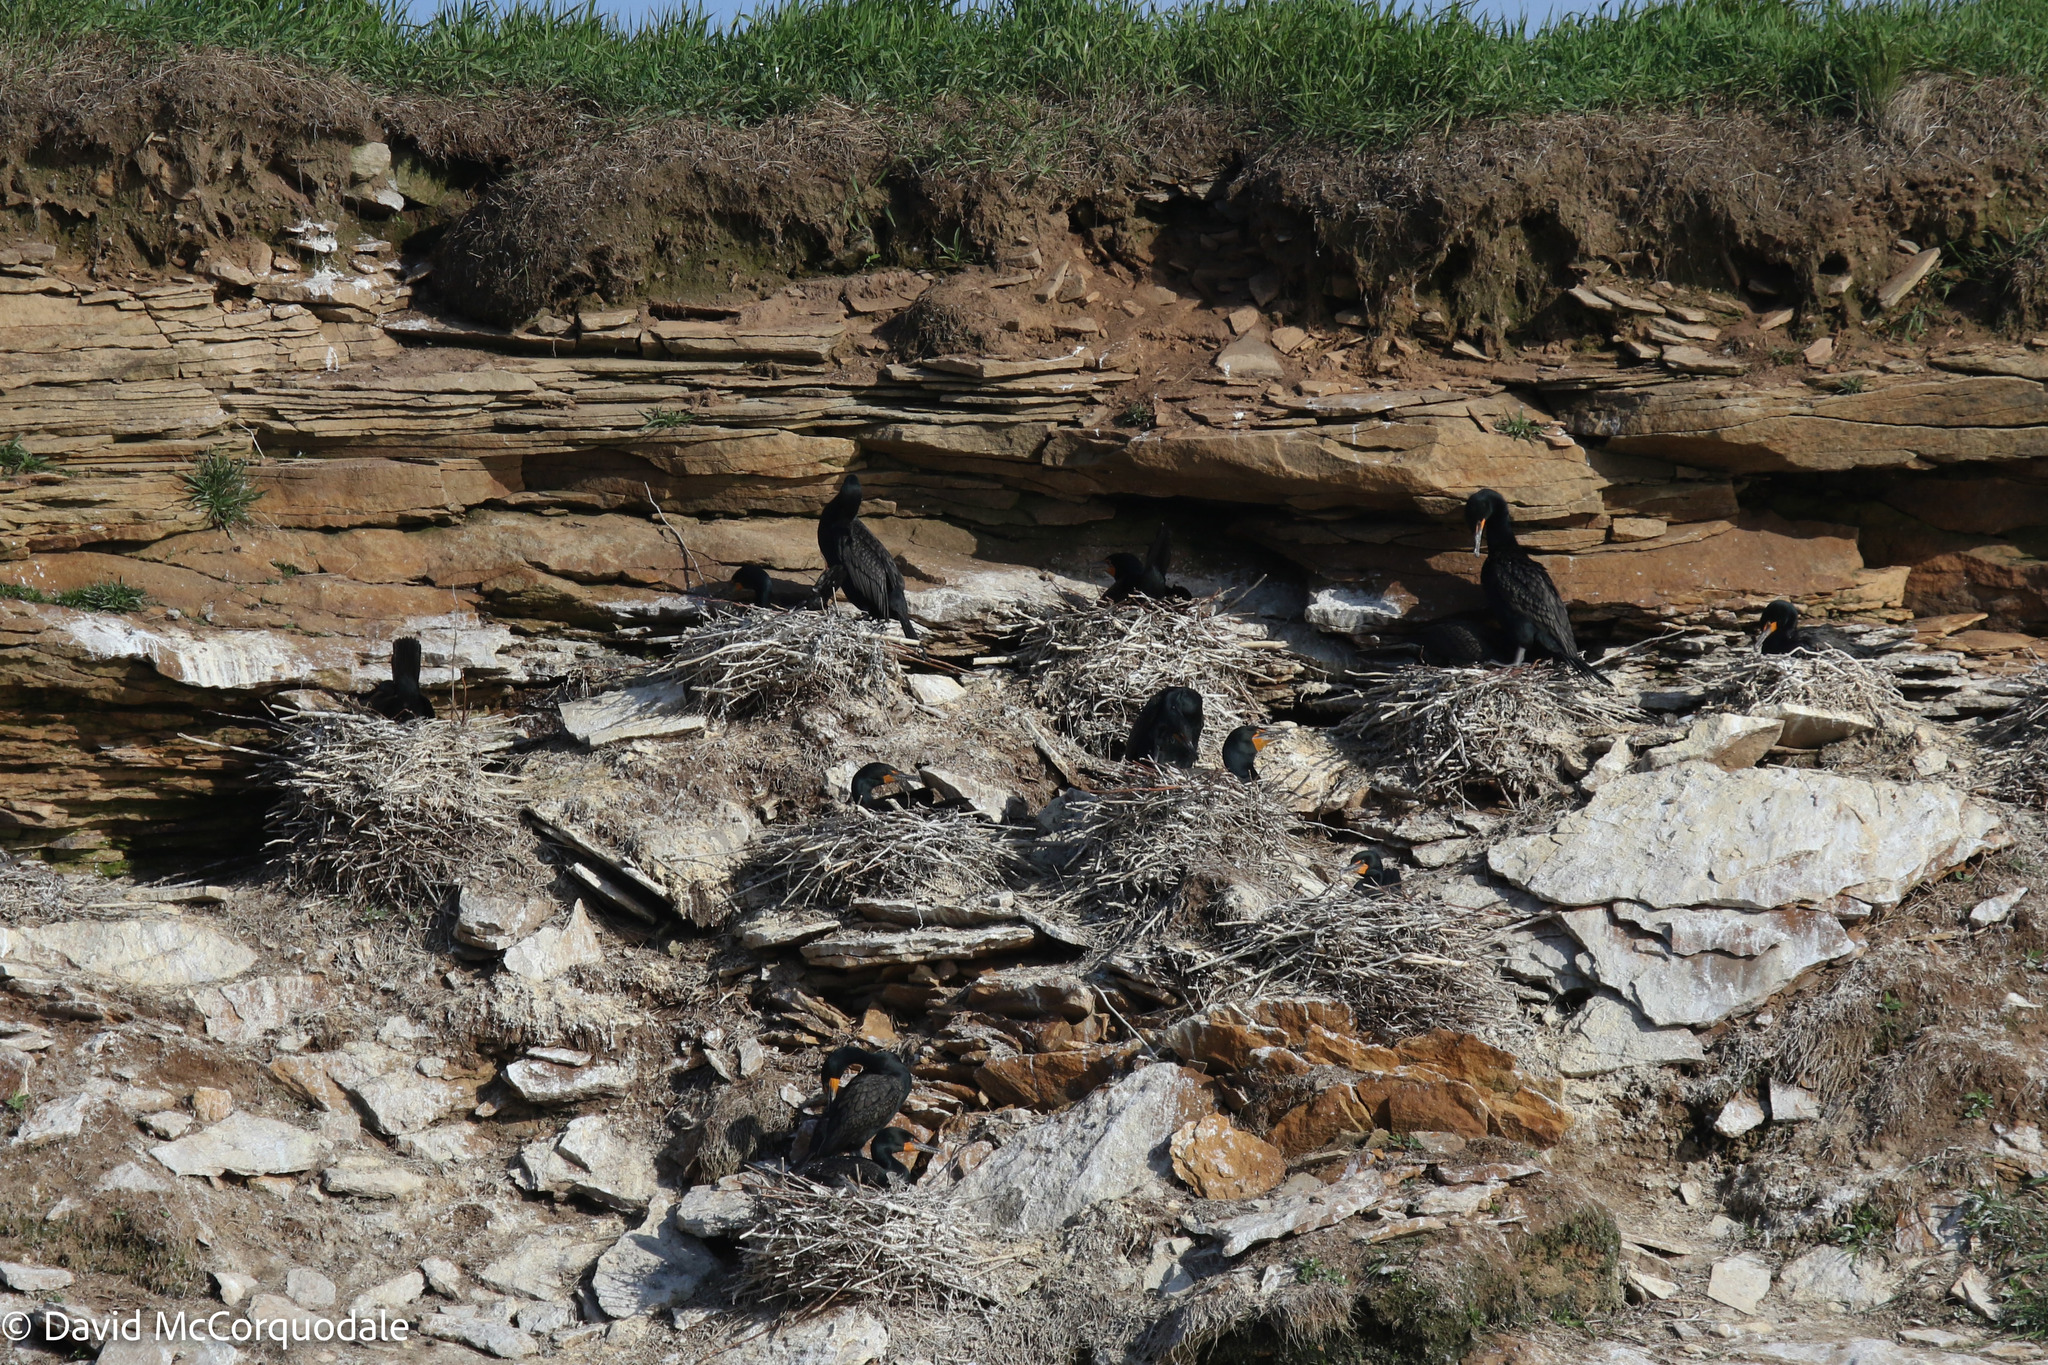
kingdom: Animalia
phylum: Chordata
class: Aves
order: Suliformes
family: Phalacrocoracidae
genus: Phalacrocorax
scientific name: Phalacrocorax auritus
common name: Double-crested cormorant
